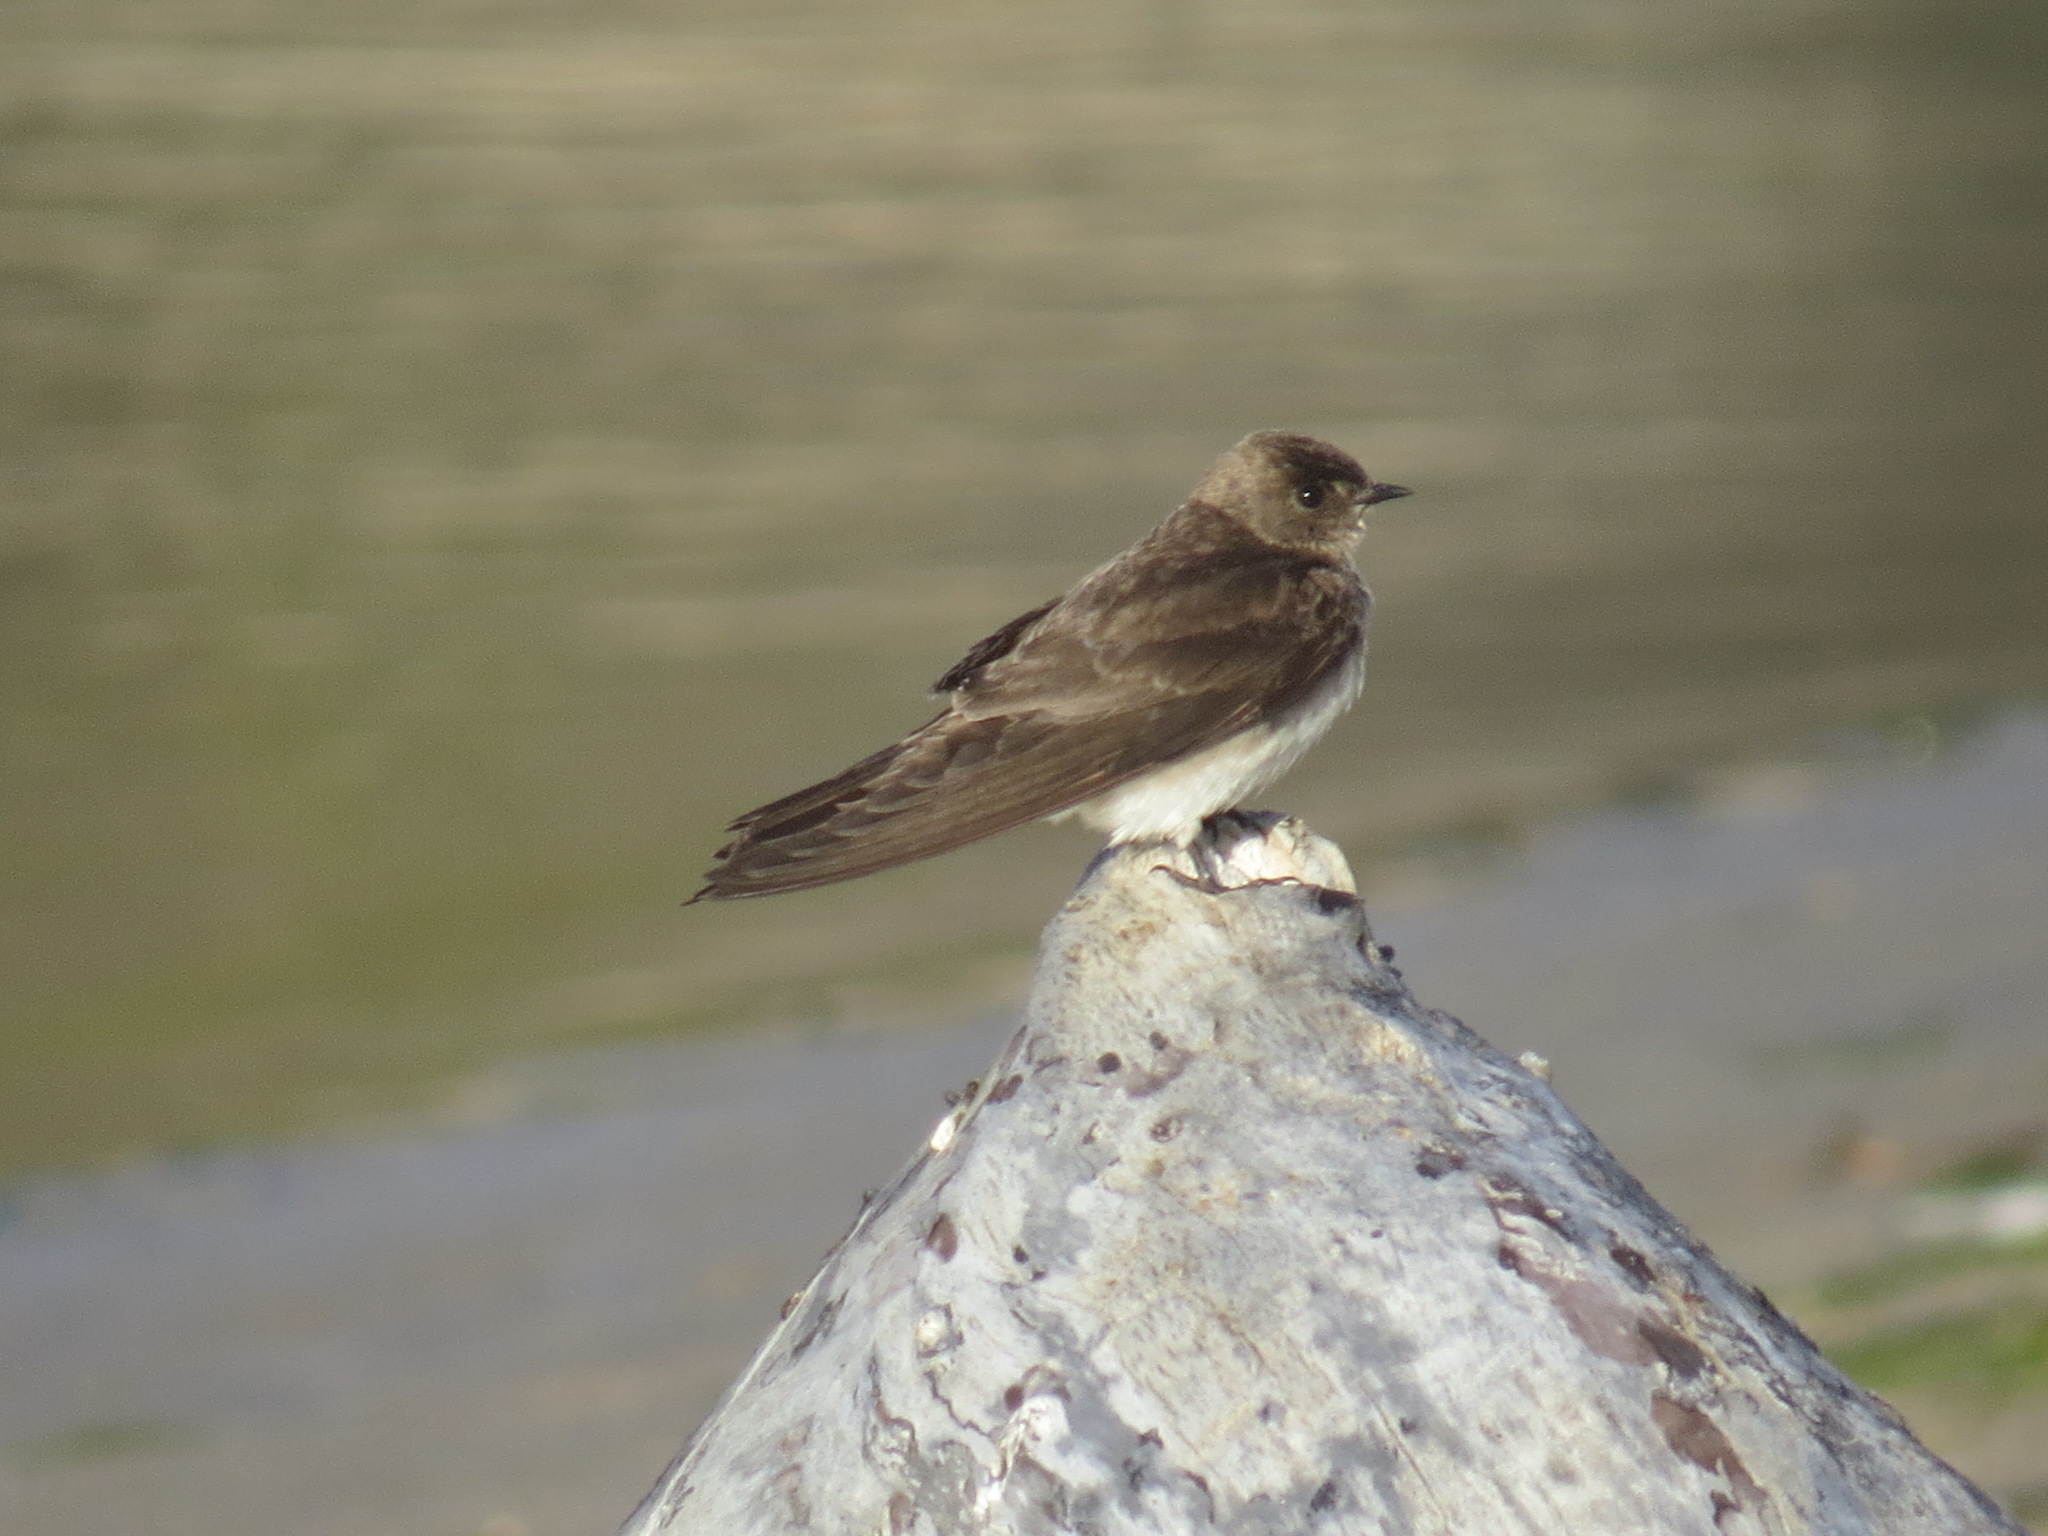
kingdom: Animalia
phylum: Chordata
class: Aves
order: Passeriformes
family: Hirundinidae
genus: Stelgidopteryx
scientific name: Stelgidopteryx serripennis
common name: Northern rough-winged swallow
